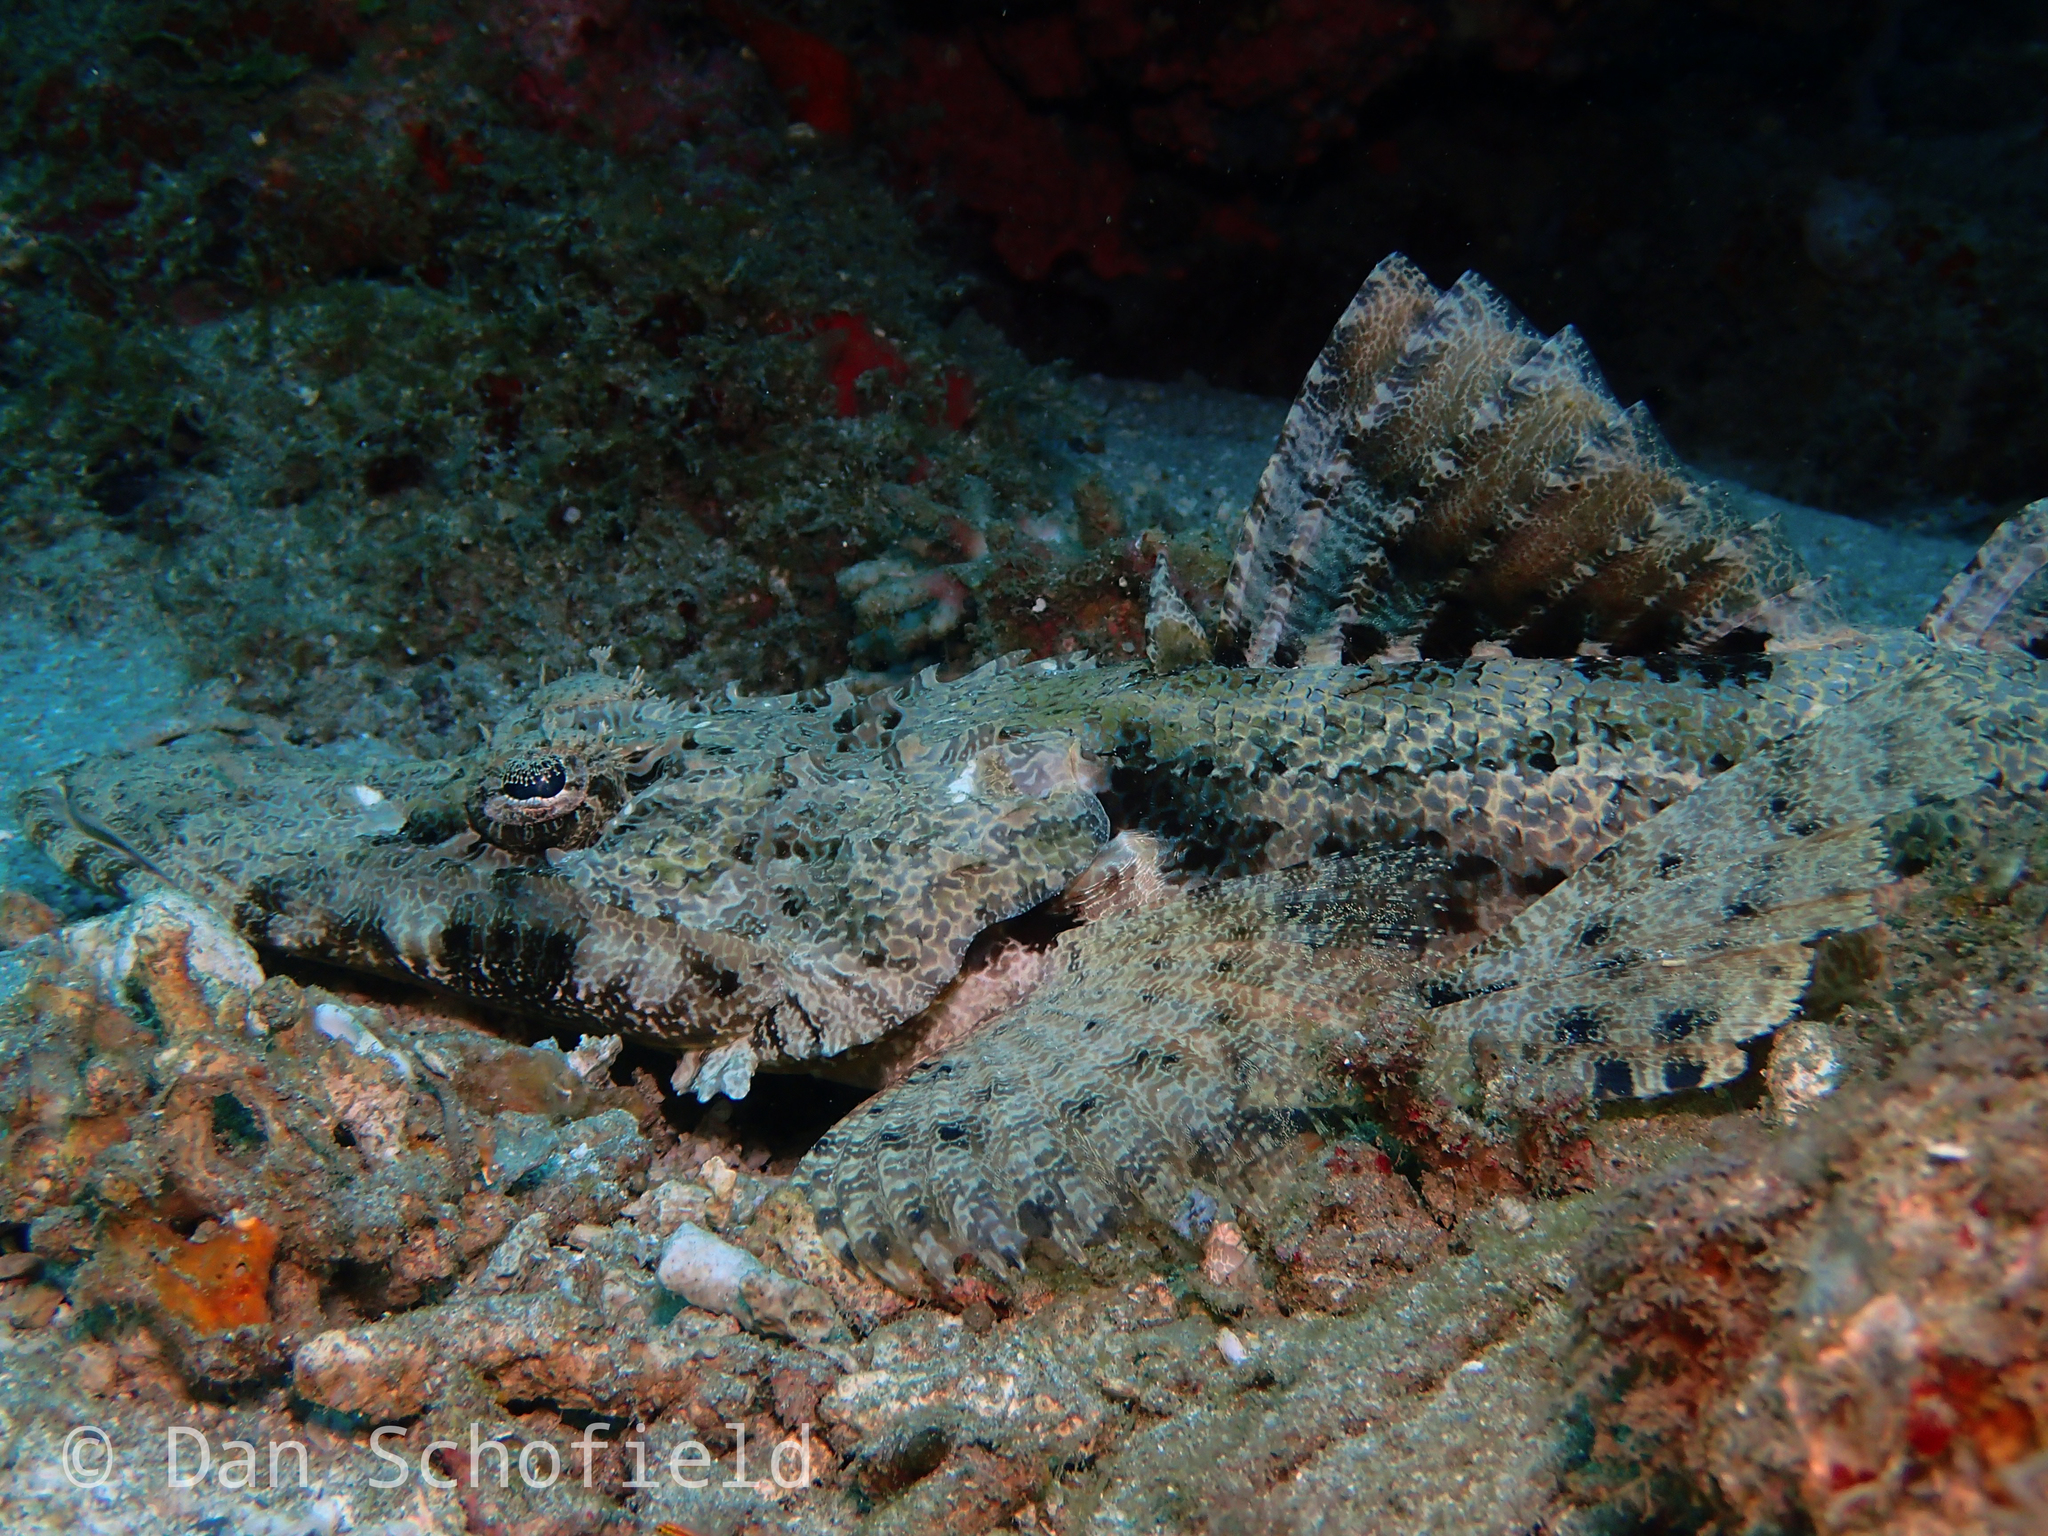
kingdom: Animalia
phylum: Chordata
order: Scorpaeniformes
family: Platycephalidae
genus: Cymbacephalus
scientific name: Cymbacephalus beauforti
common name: Crocodile fish
